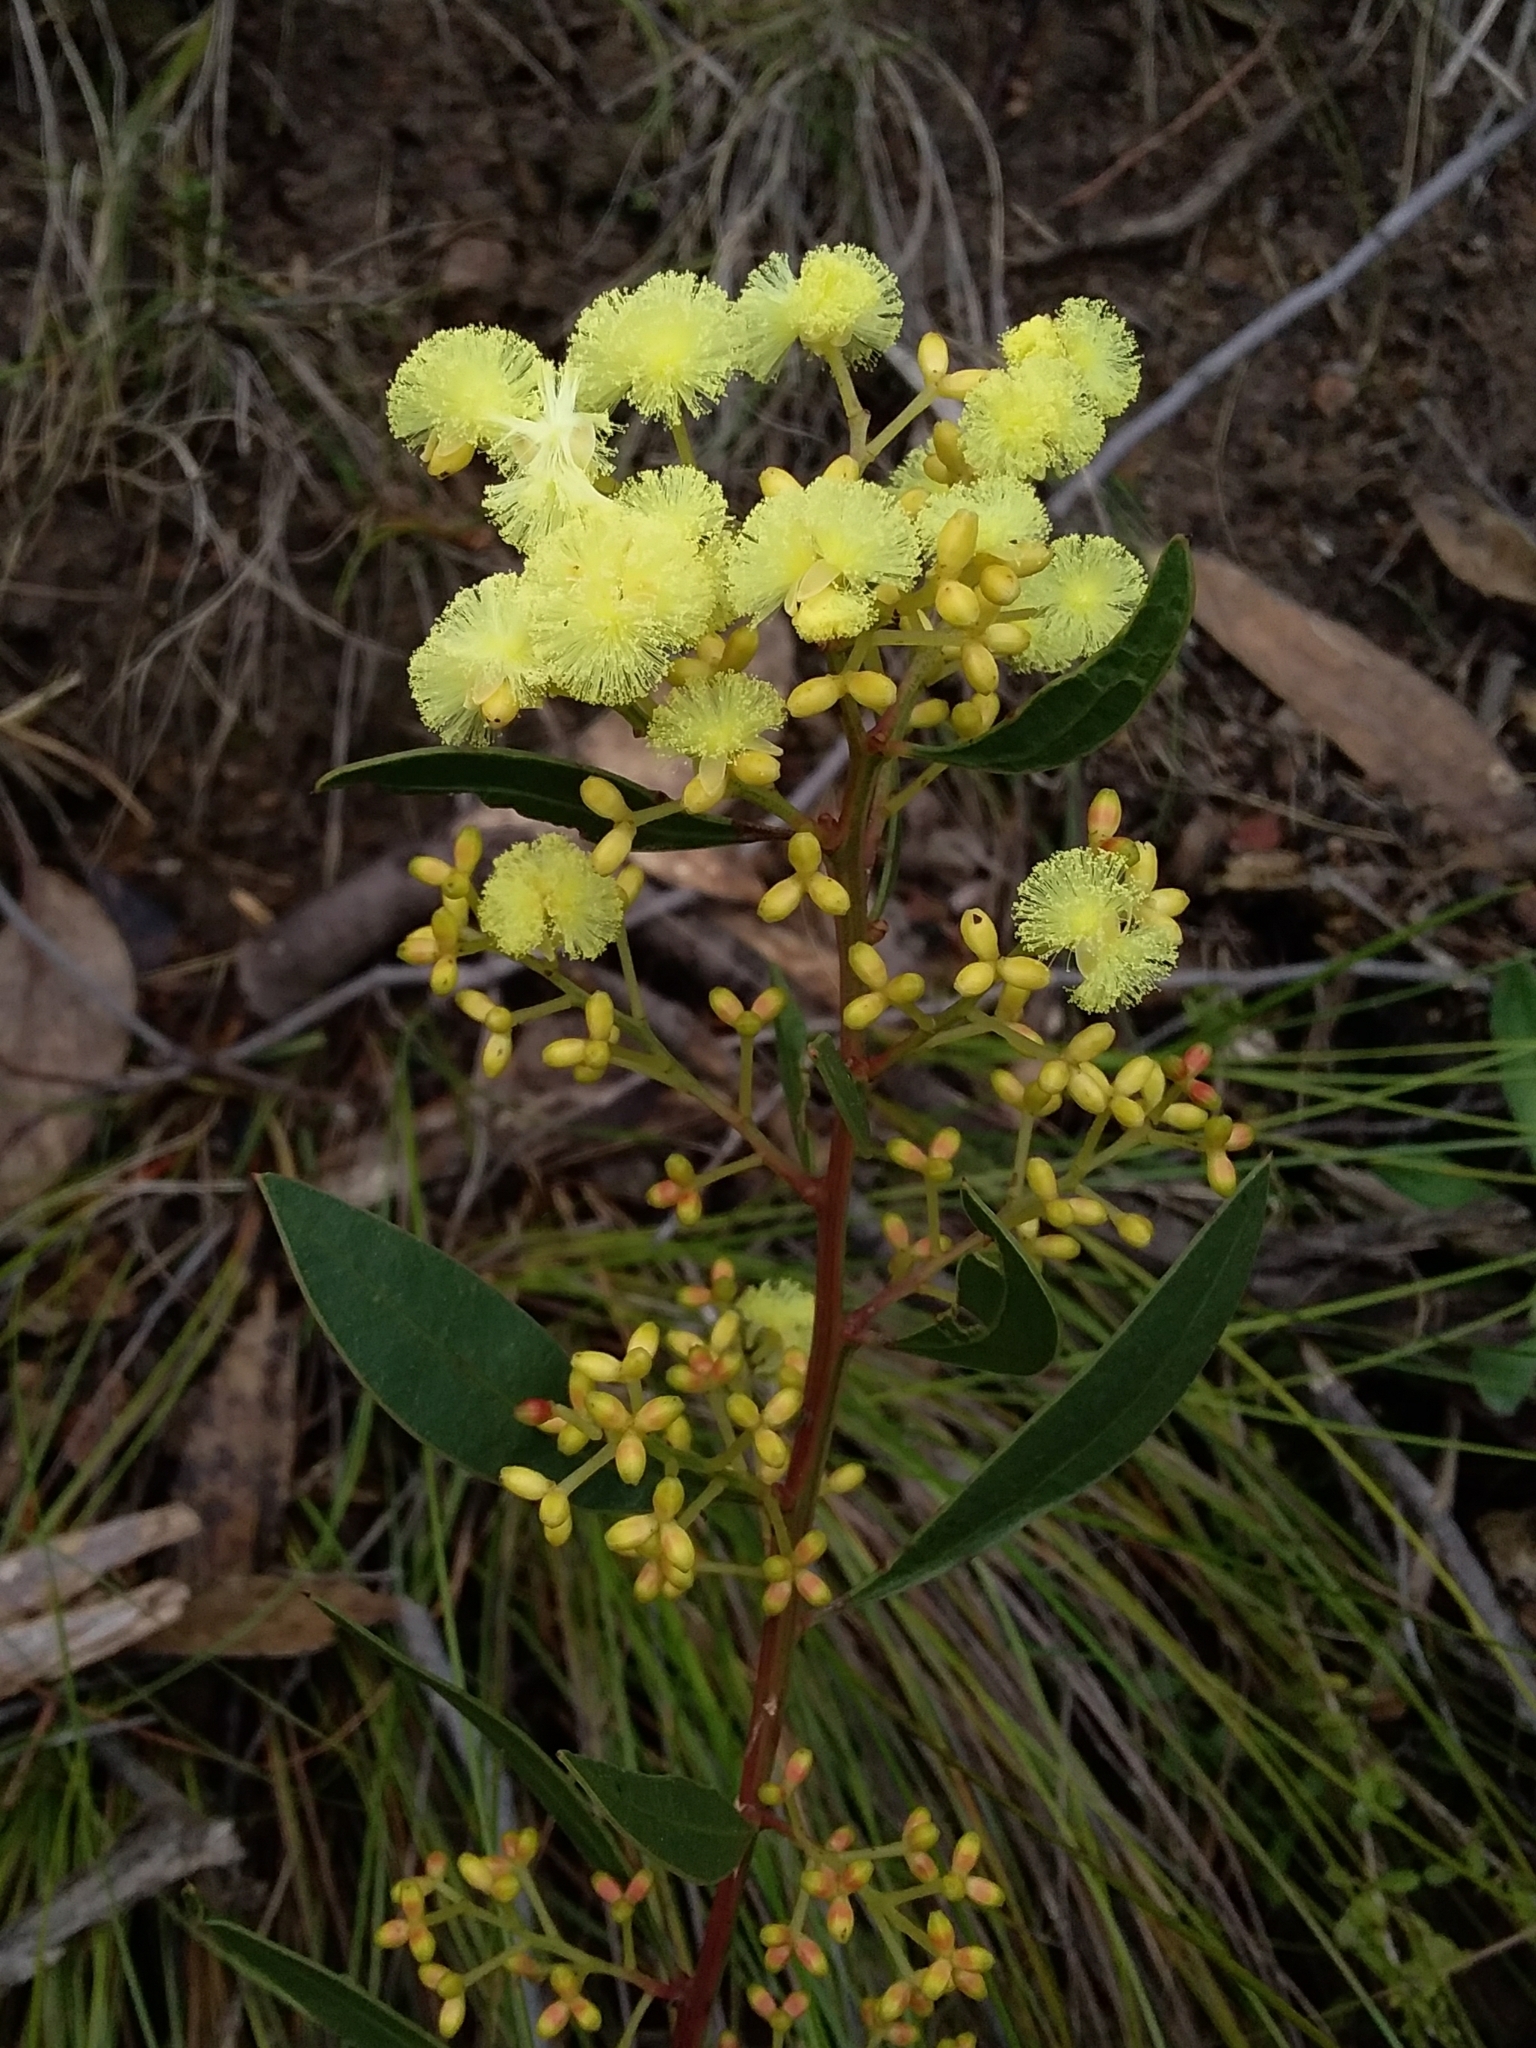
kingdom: Plantae
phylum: Tracheophyta
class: Magnoliopsida
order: Fabales
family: Fabaceae
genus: Acacia
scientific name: Acacia myrtifolia
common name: Myrtle wattle
